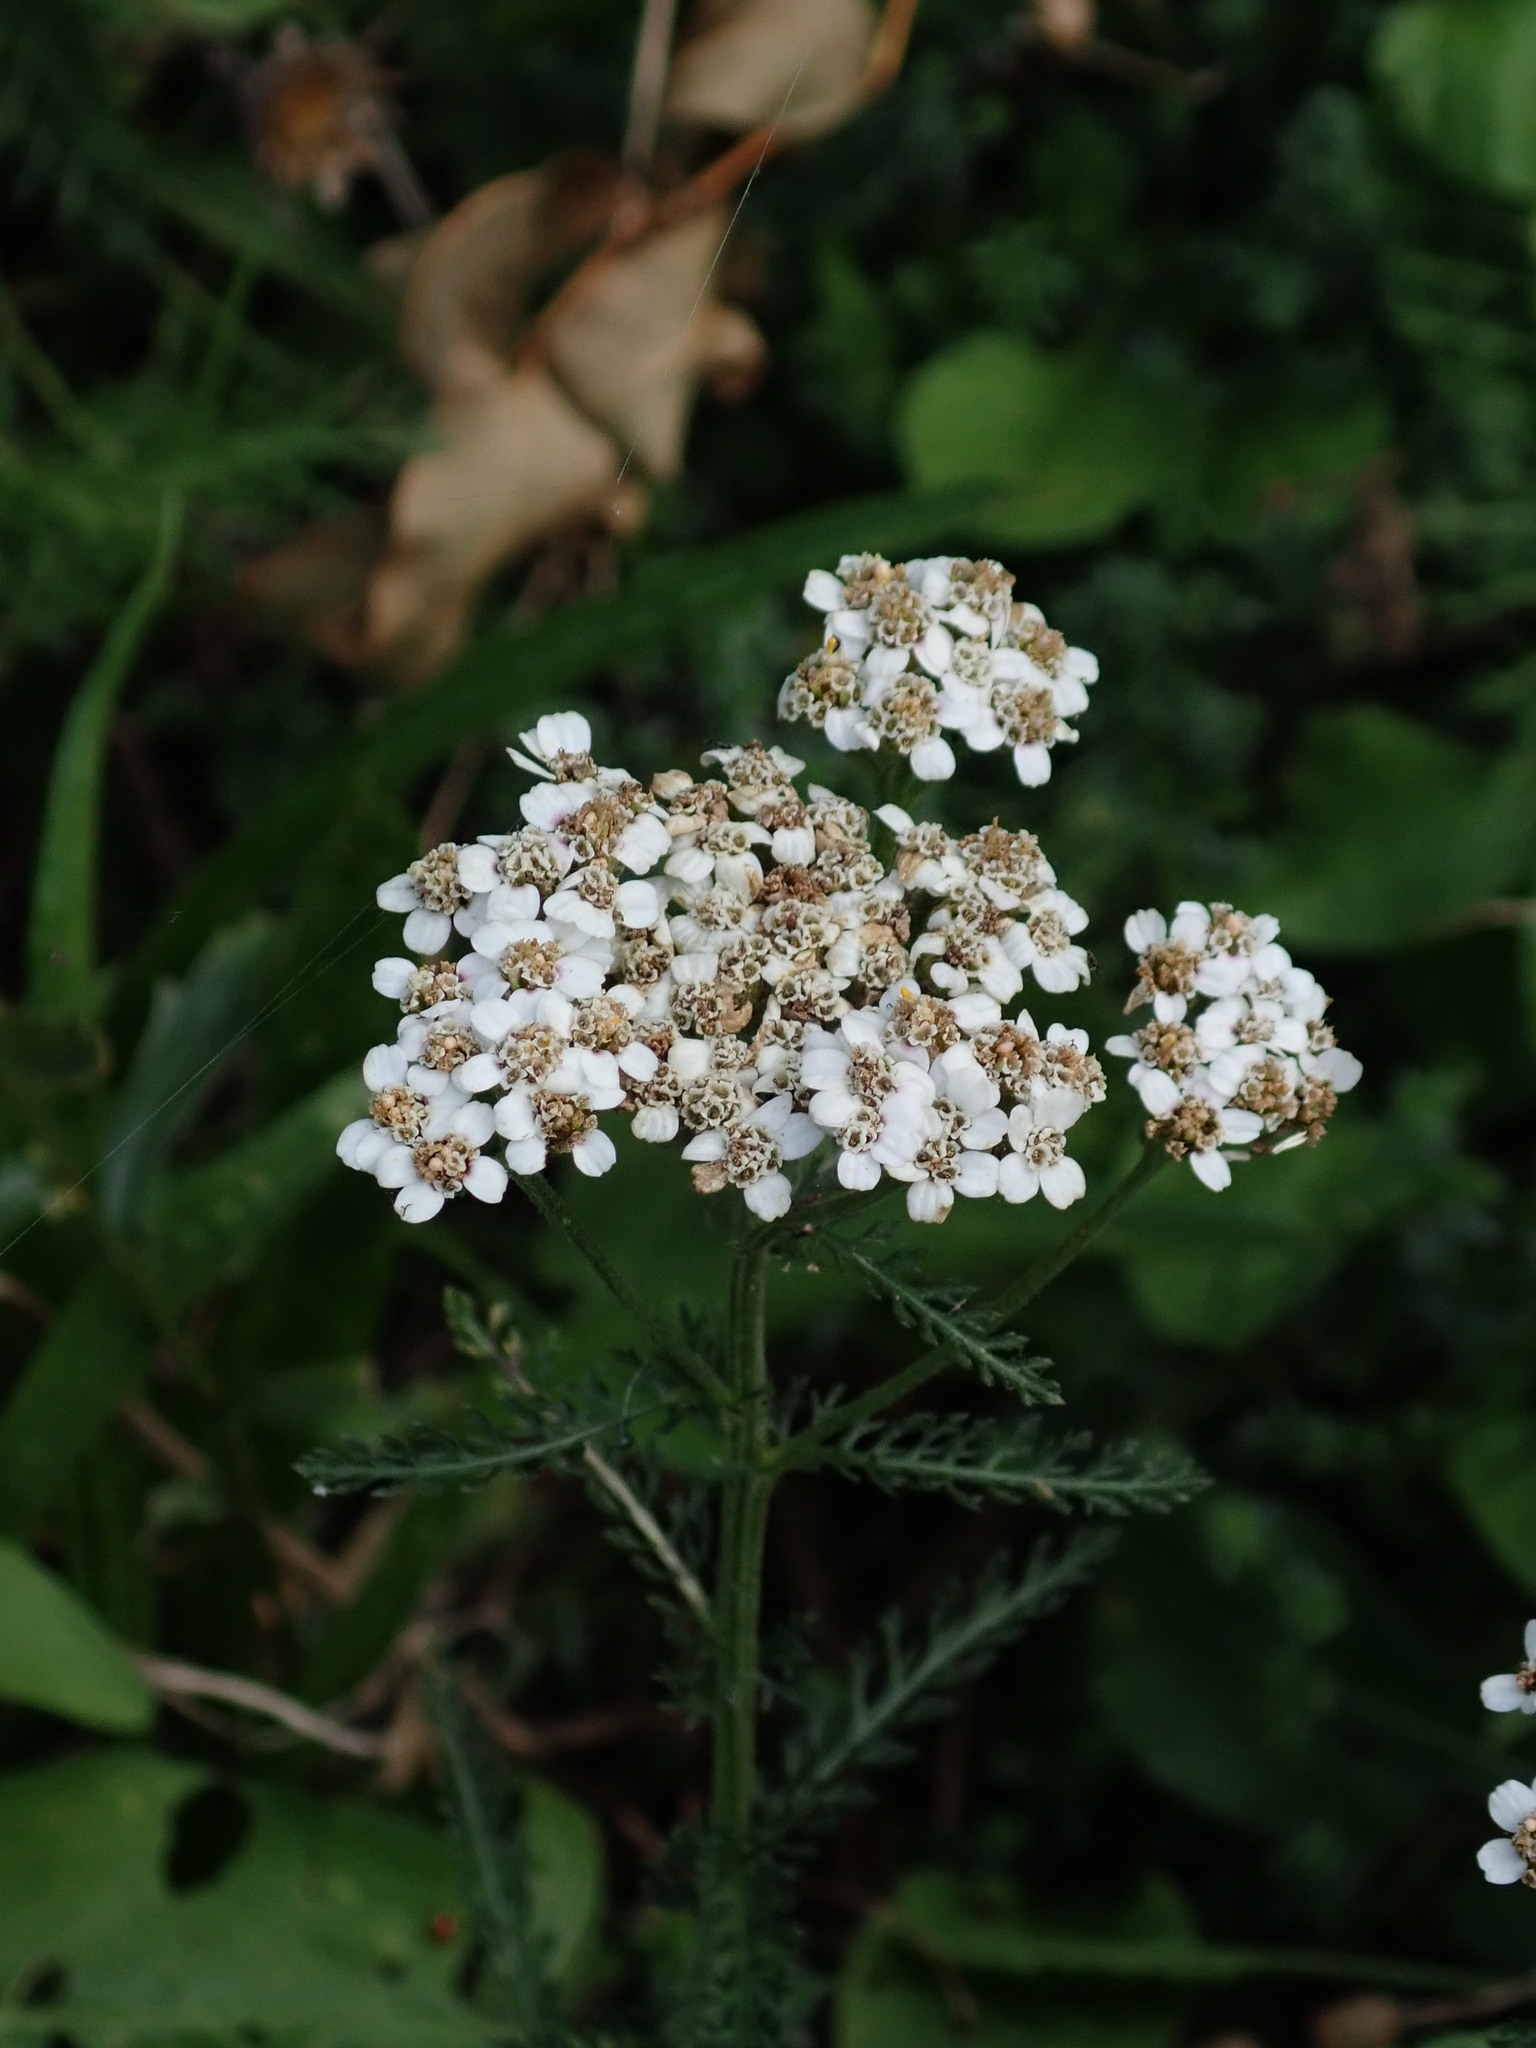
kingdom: Plantae
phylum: Tracheophyta
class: Magnoliopsida
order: Asterales
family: Asteraceae
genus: Achillea
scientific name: Achillea millefolium
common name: Yarrow
